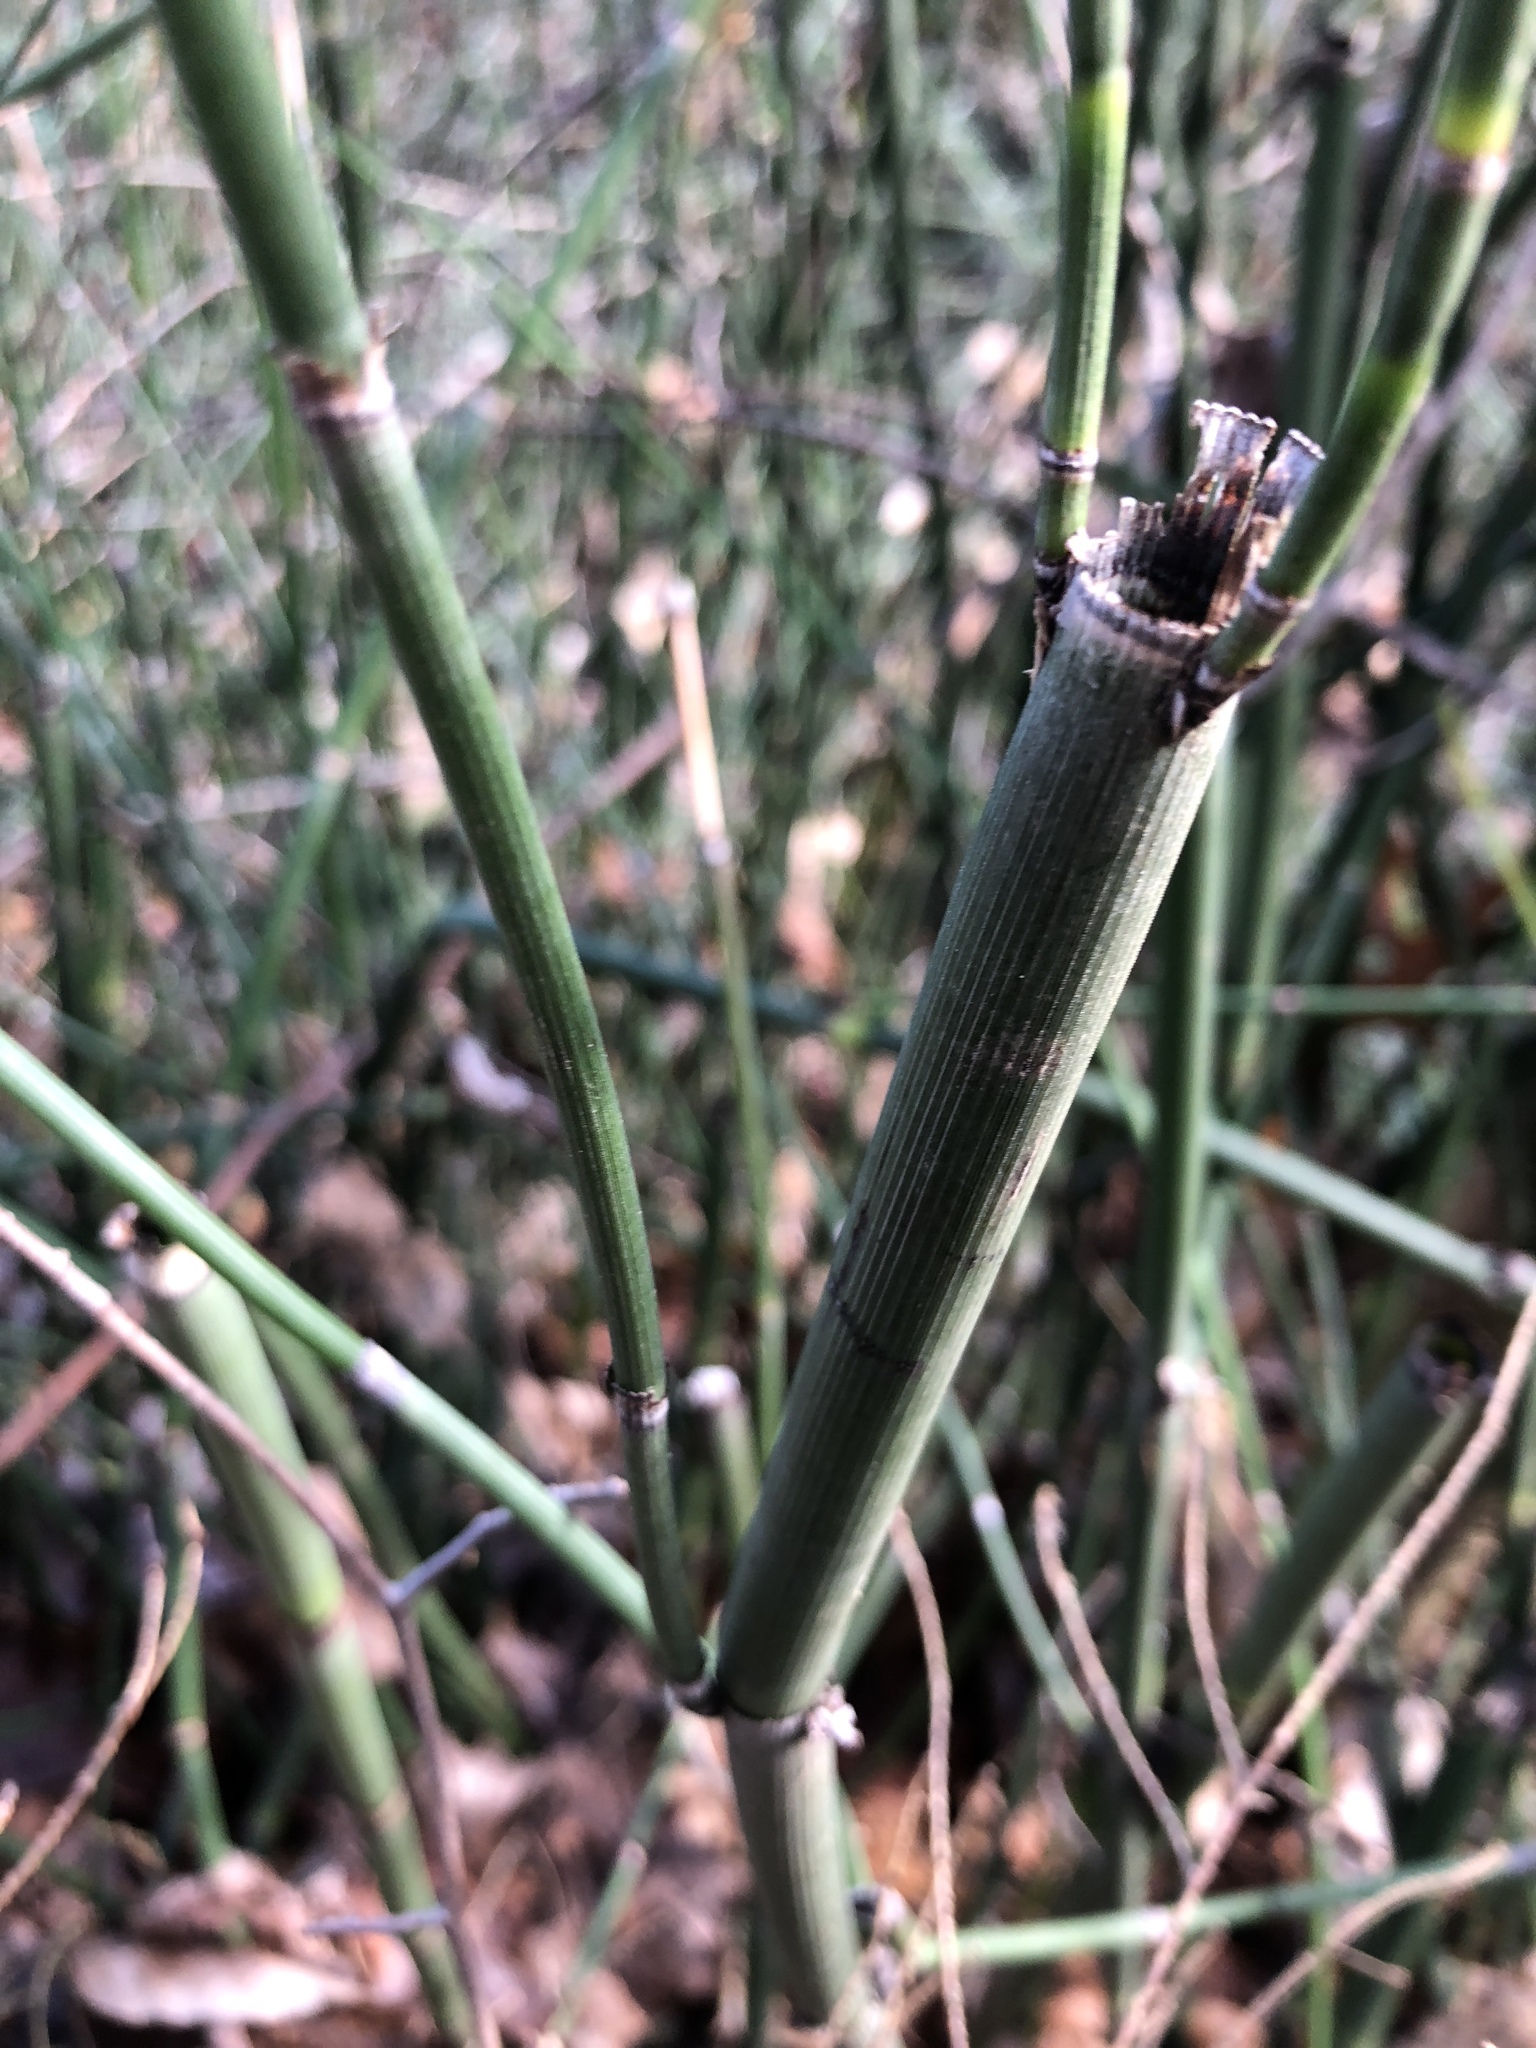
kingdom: Plantae
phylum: Tracheophyta
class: Polypodiopsida
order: Equisetales
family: Equisetaceae
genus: Equisetum
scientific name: Equisetum praealtum
